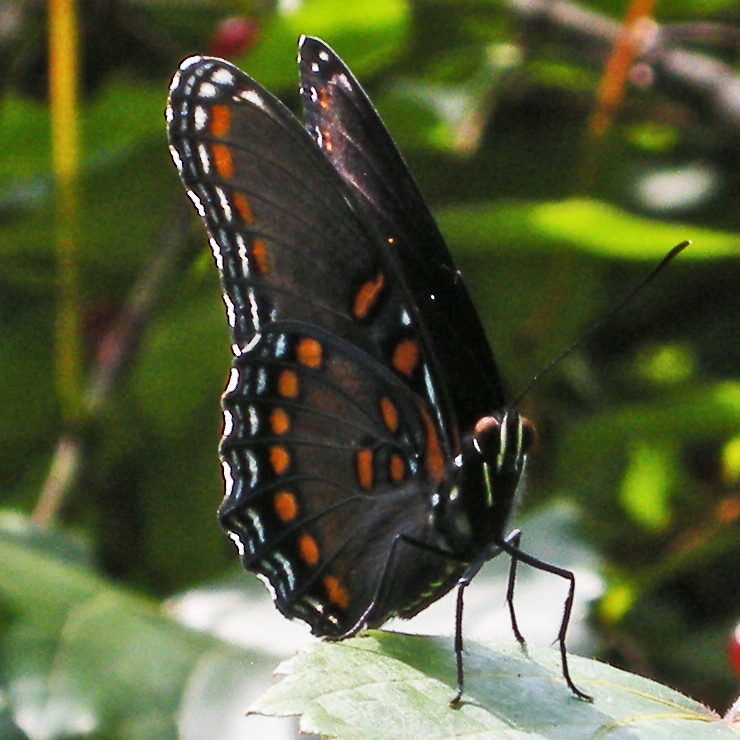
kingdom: Animalia
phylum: Arthropoda
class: Insecta
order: Lepidoptera
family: Nymphalidae
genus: Limenitis
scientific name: Limenitis astyanax
